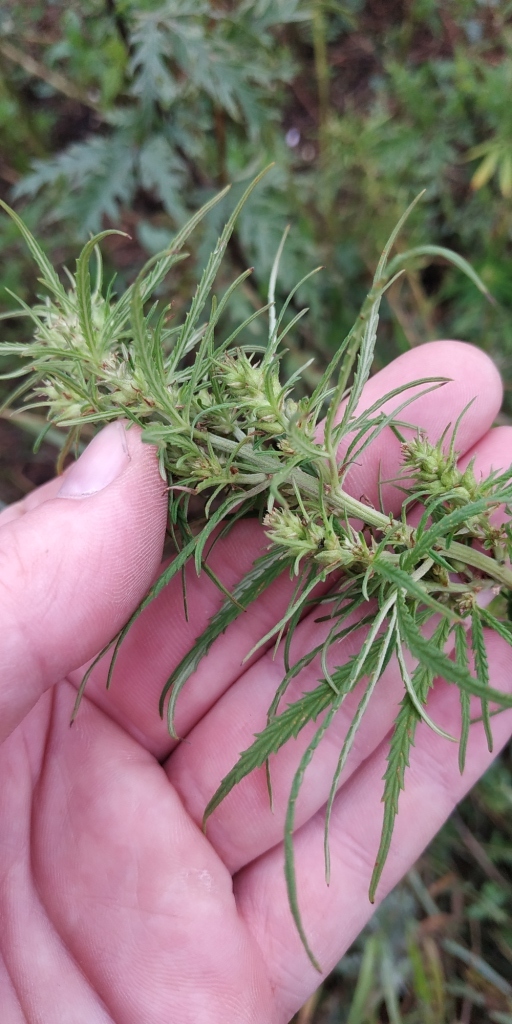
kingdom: Plantae
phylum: Tracheophyta
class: Magnoliopsida
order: Rosales
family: Cannabaceae
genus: Cannabis
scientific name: Cannabis sativa
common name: Hemp
